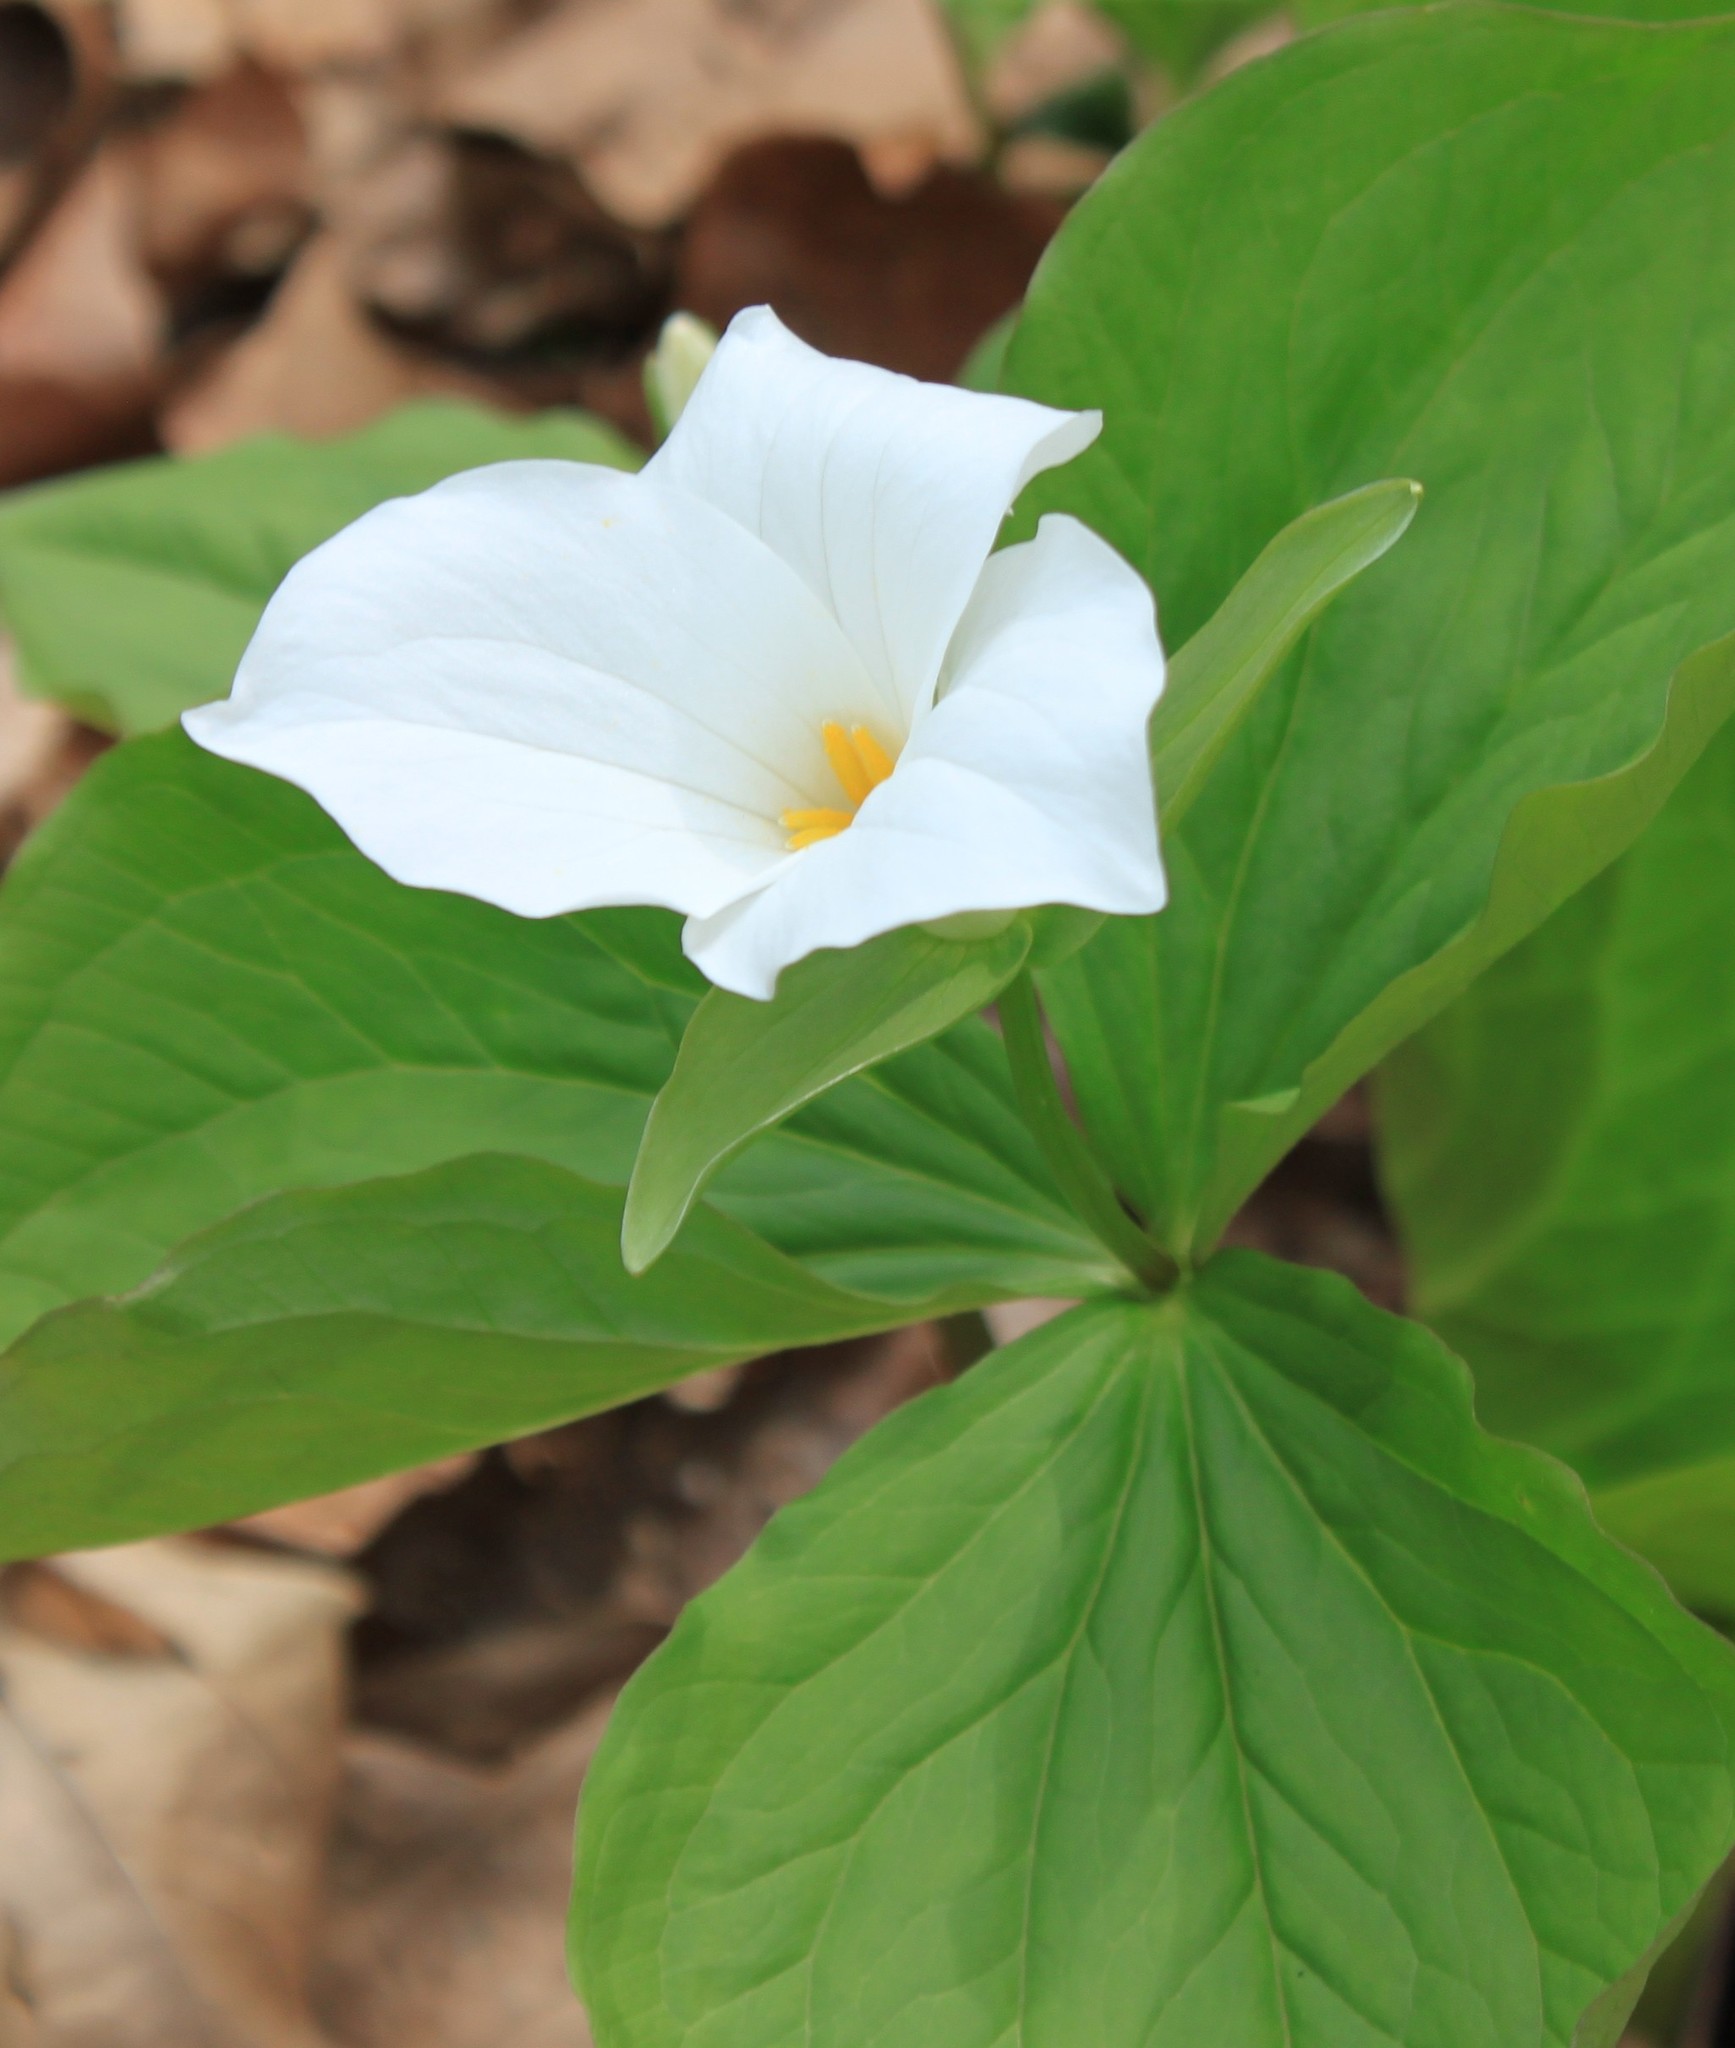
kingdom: Plantae
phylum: Tracheophyta
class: Liliopsida
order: Liliales
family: Melanthiaceae
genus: Trillium
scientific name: Trillium grandiflorum
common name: Great white trillium
